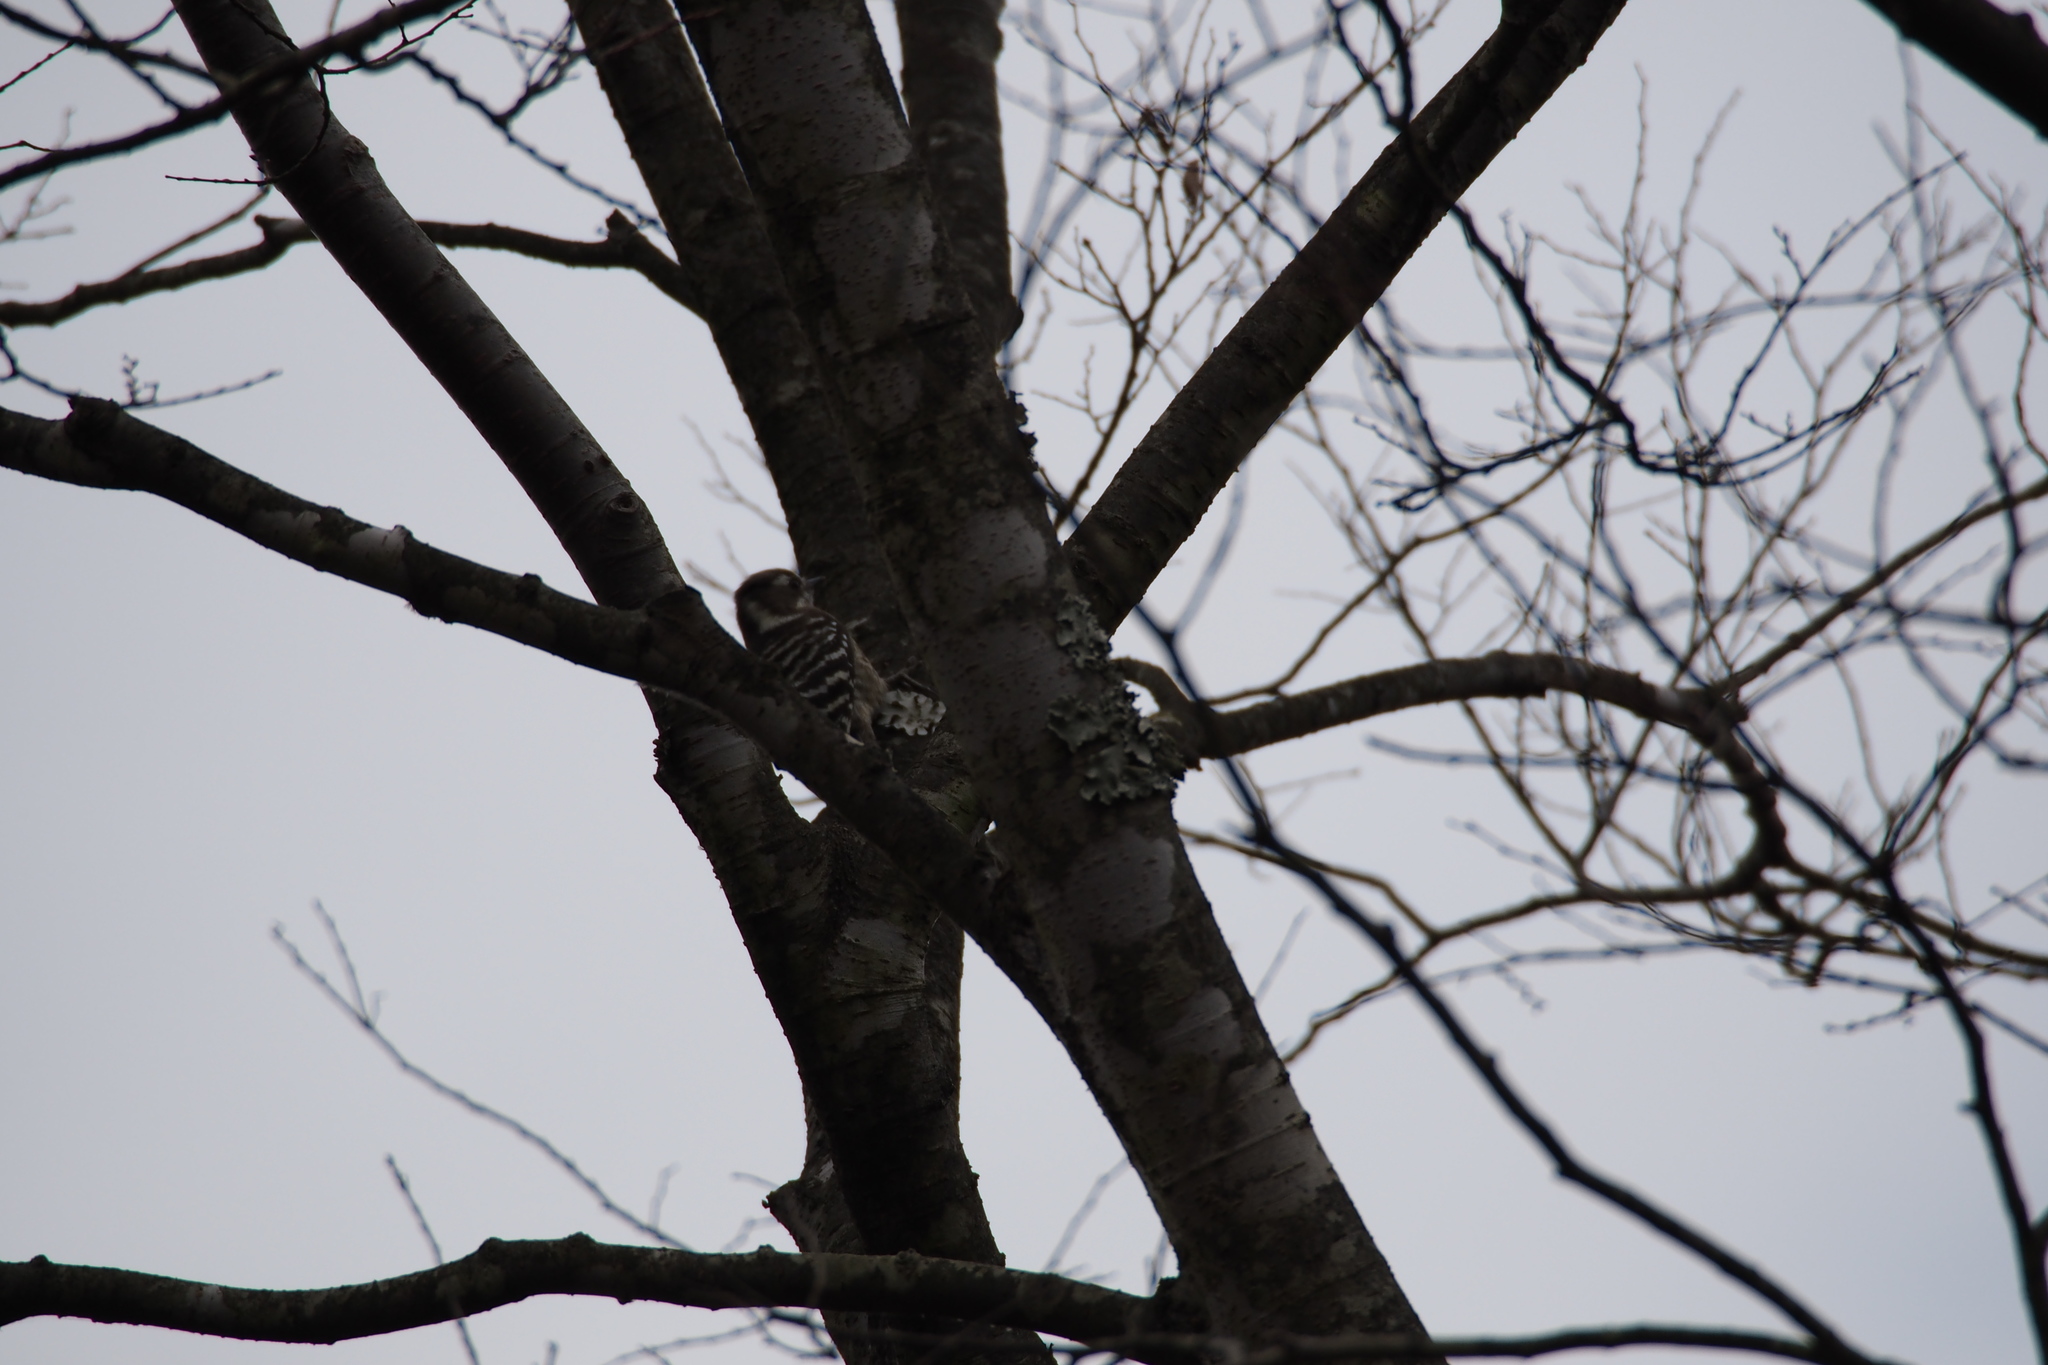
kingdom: Animalia
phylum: Chordata
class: Aves
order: Piciformes
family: Picidae
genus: Yungipicus
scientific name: Yungipicus kizuki
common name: Japanese pygmy woodpecker
